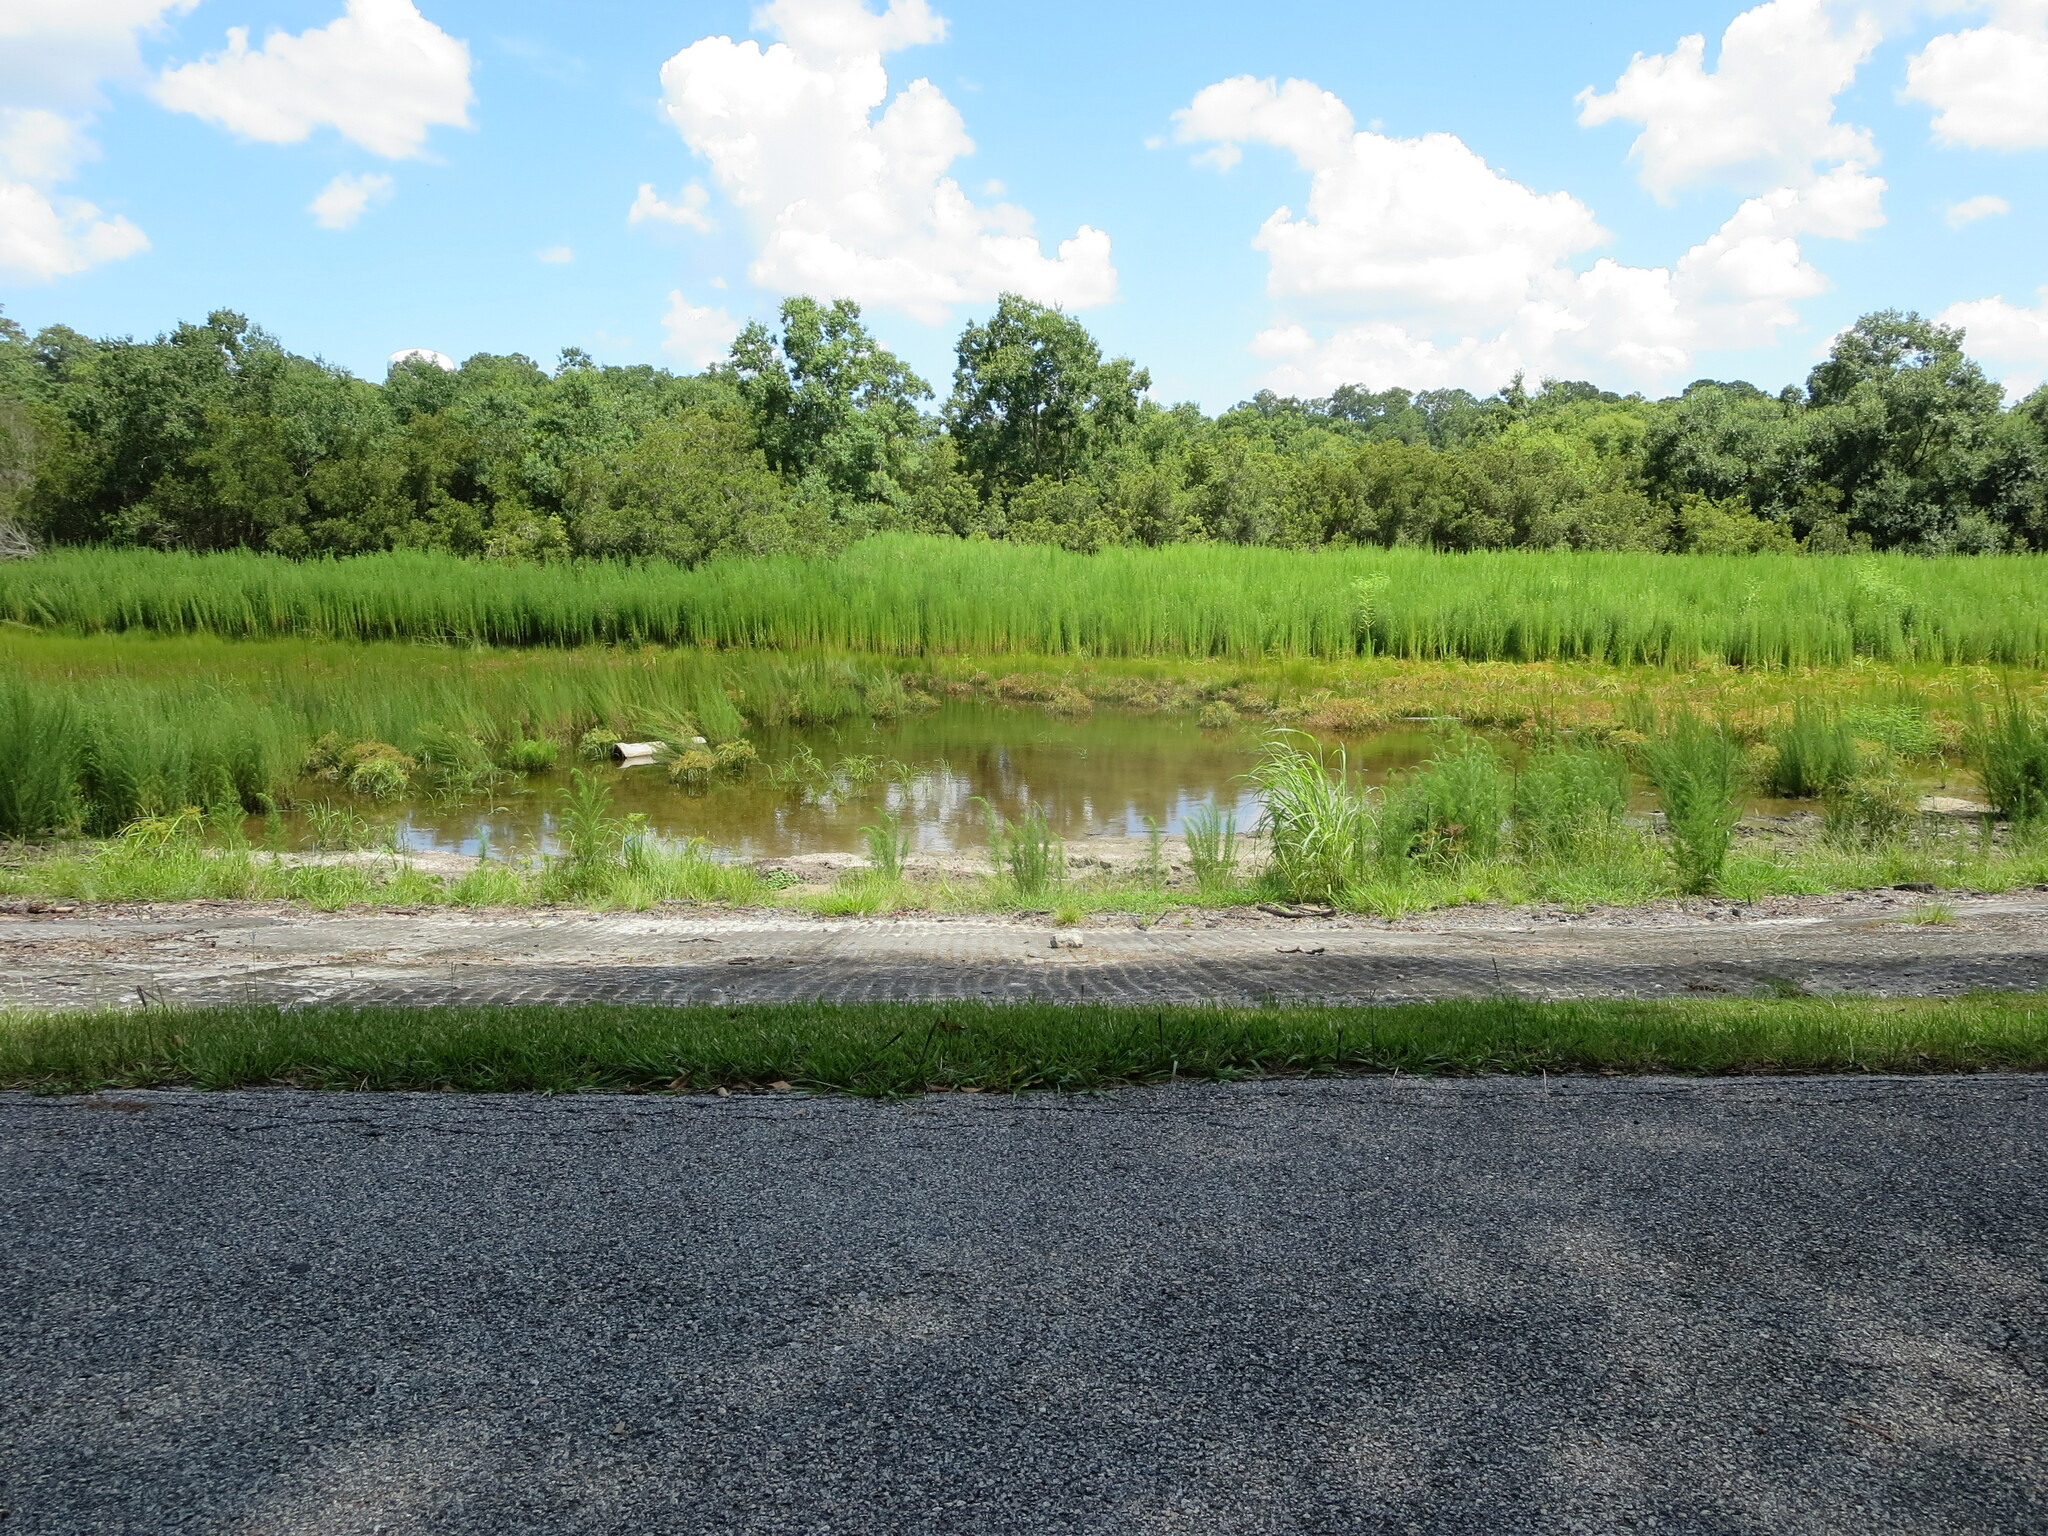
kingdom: Plantae
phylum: Tracheophyta
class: Magnoliopsida
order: Asterales
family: Asteraceae
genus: Eupatorium
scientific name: Eupatorium capillifolium
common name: Dog-fennel
